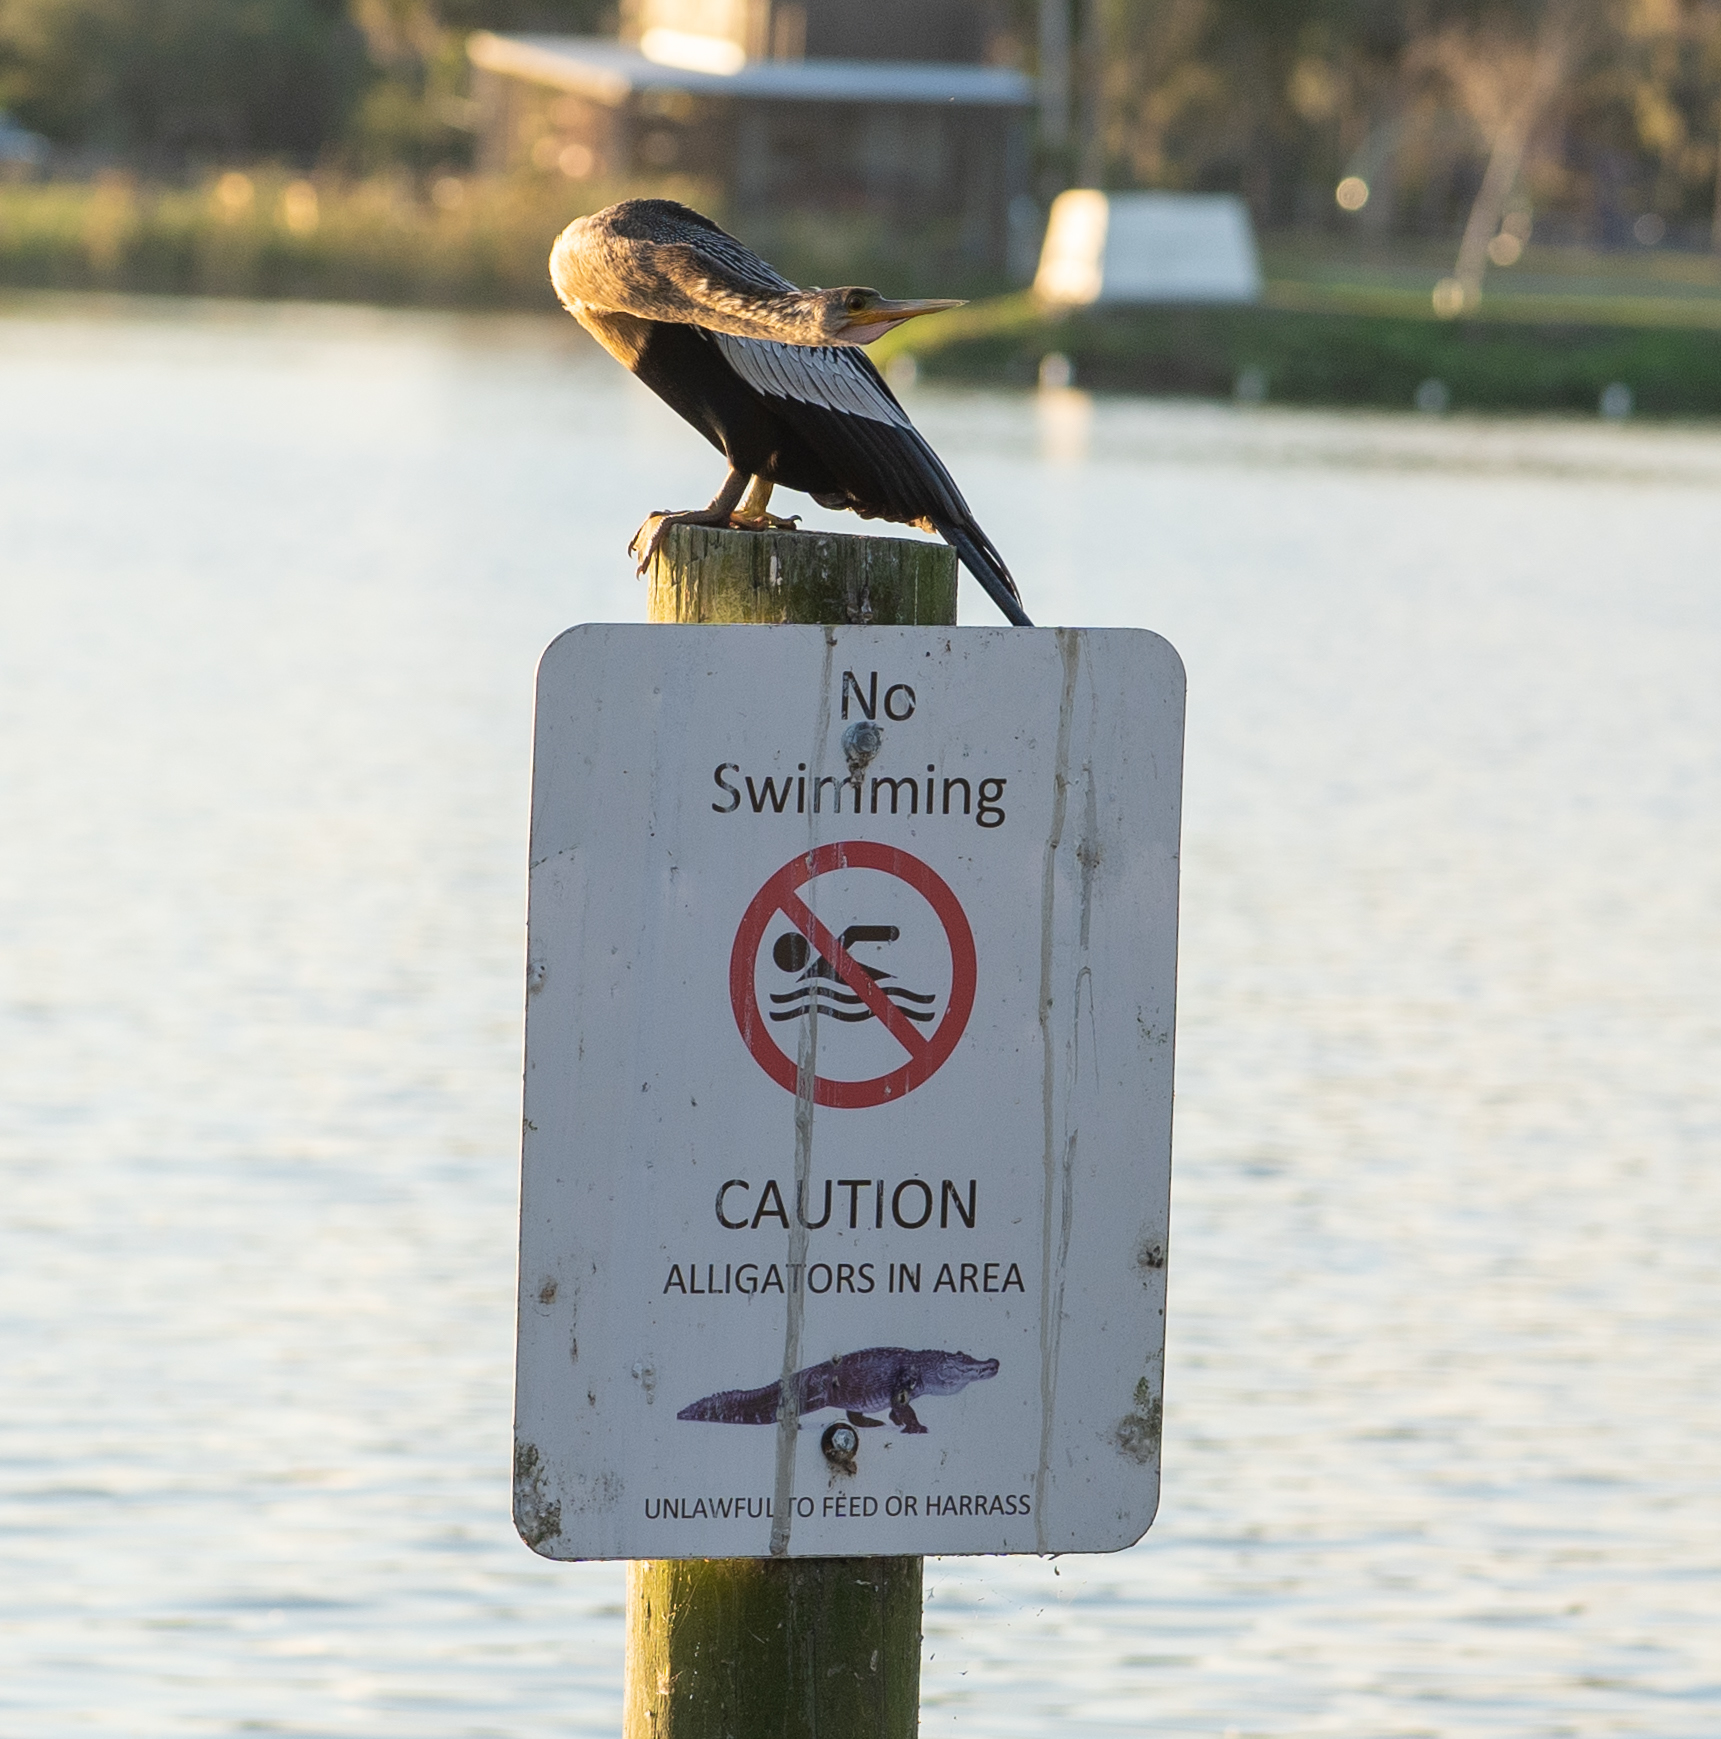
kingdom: Animalia
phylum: Chordata
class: Aves
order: Suliformes
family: Anhingidae
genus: Anhinga
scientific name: Anhinga anhinga
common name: Anhinga
